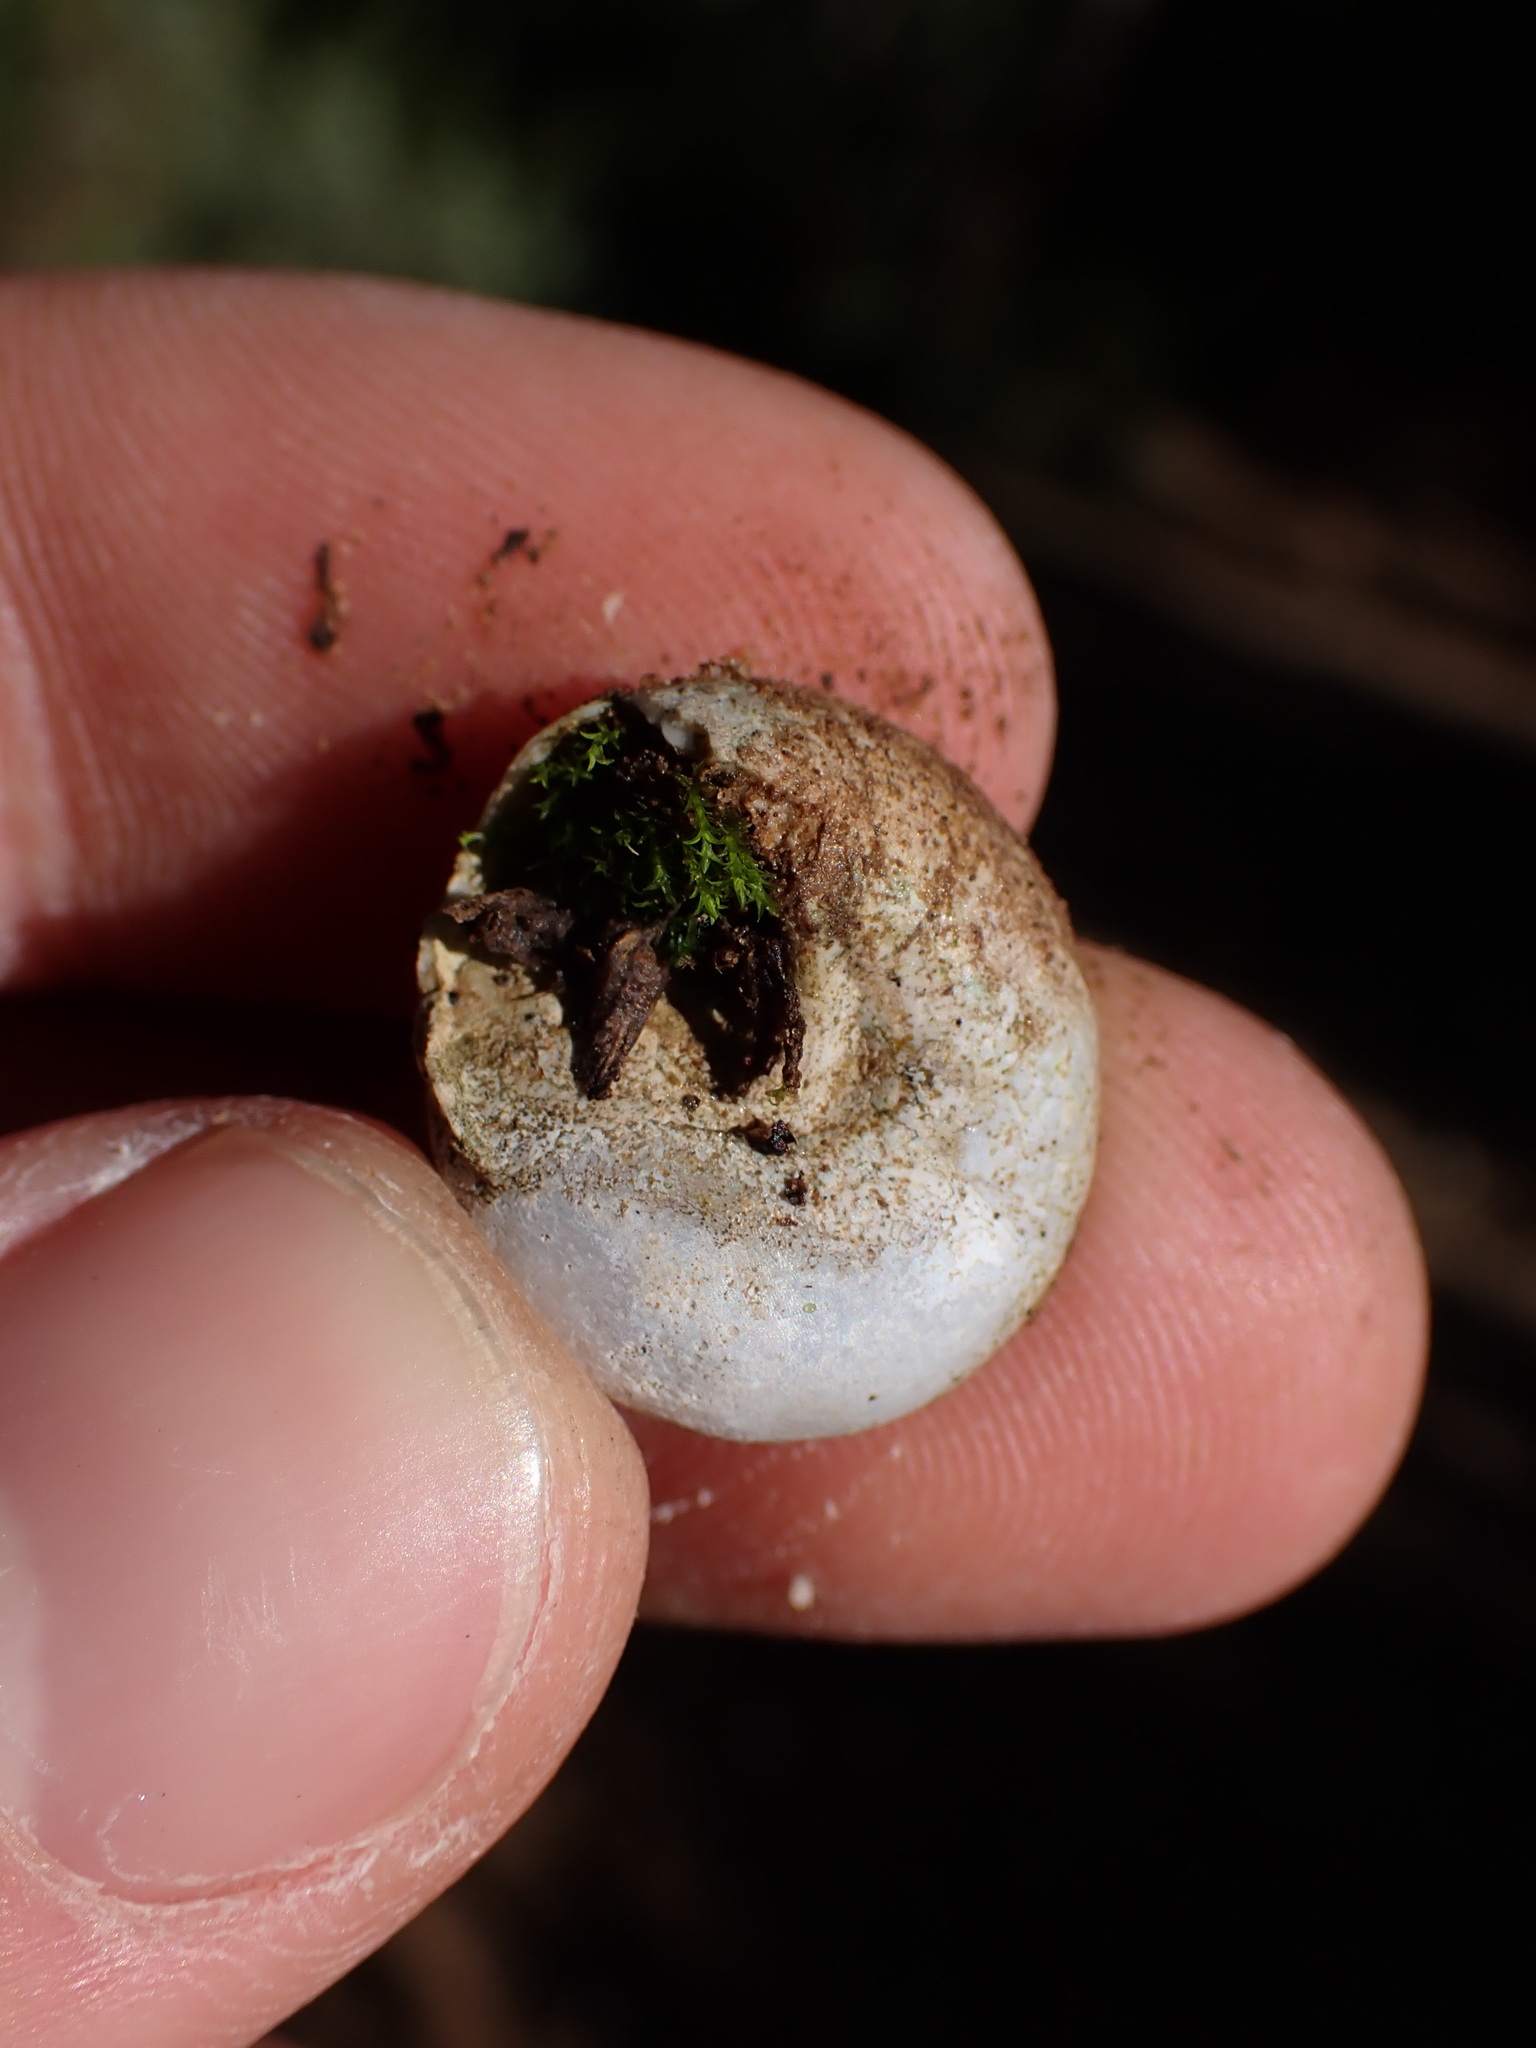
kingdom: Animalia
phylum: Mollusca
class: Gastropoda
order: Stylommatophora
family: Sphincterochilidae
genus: Sphincterochila
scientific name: Sphincterochila candidissima
